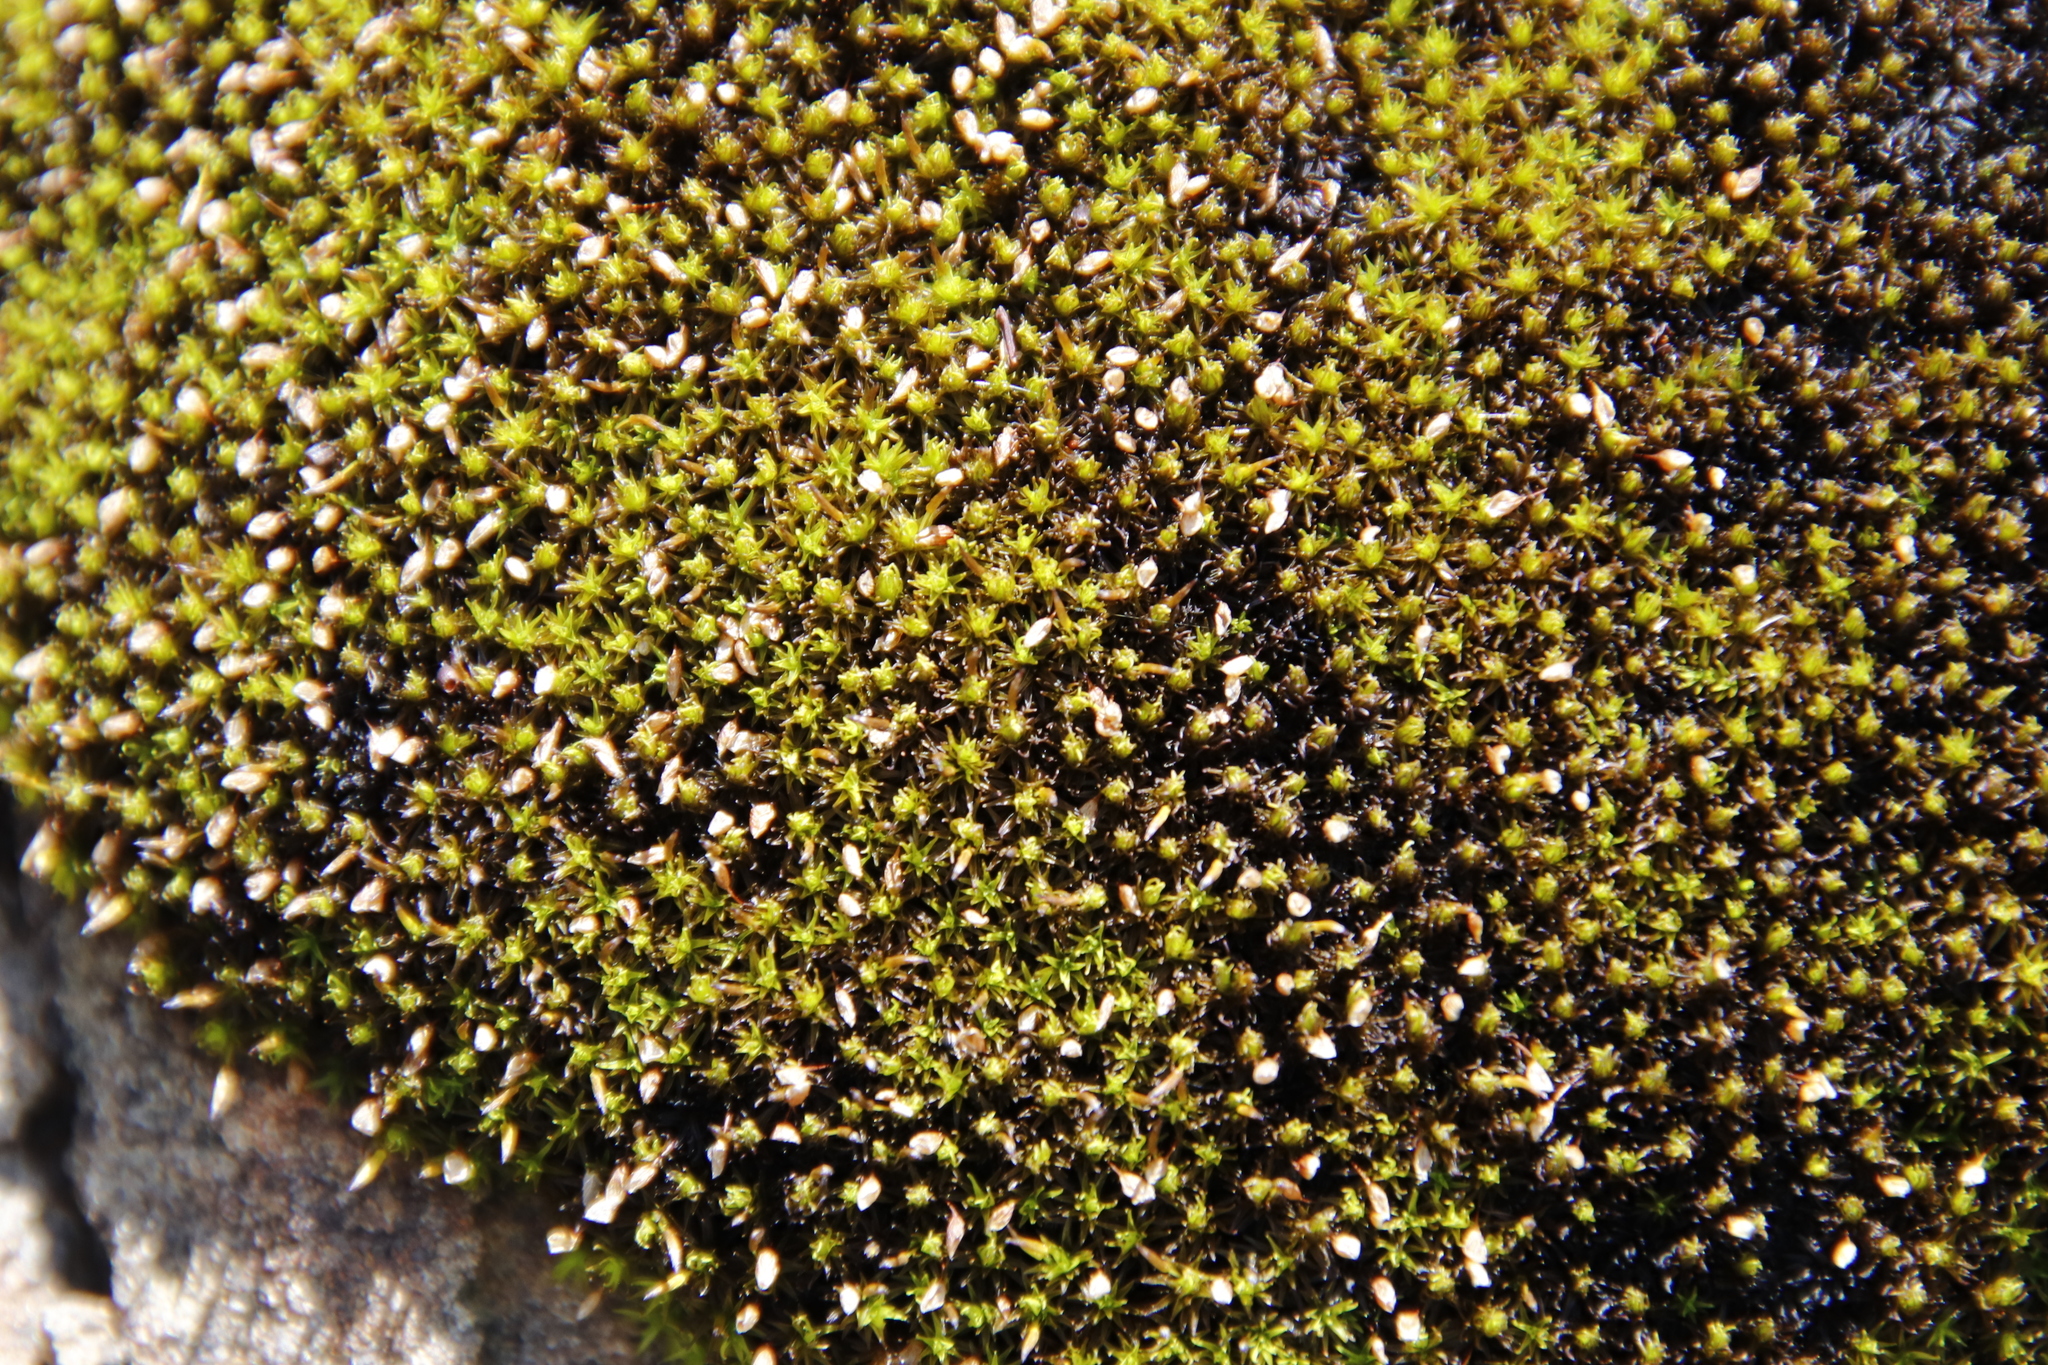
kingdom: Plantae
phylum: Bryophyta
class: Bryopsida
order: Grimmiales
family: Ptychomitriaceae
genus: Ptychomitrium
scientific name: Ptychomitrium cucullatifolium
